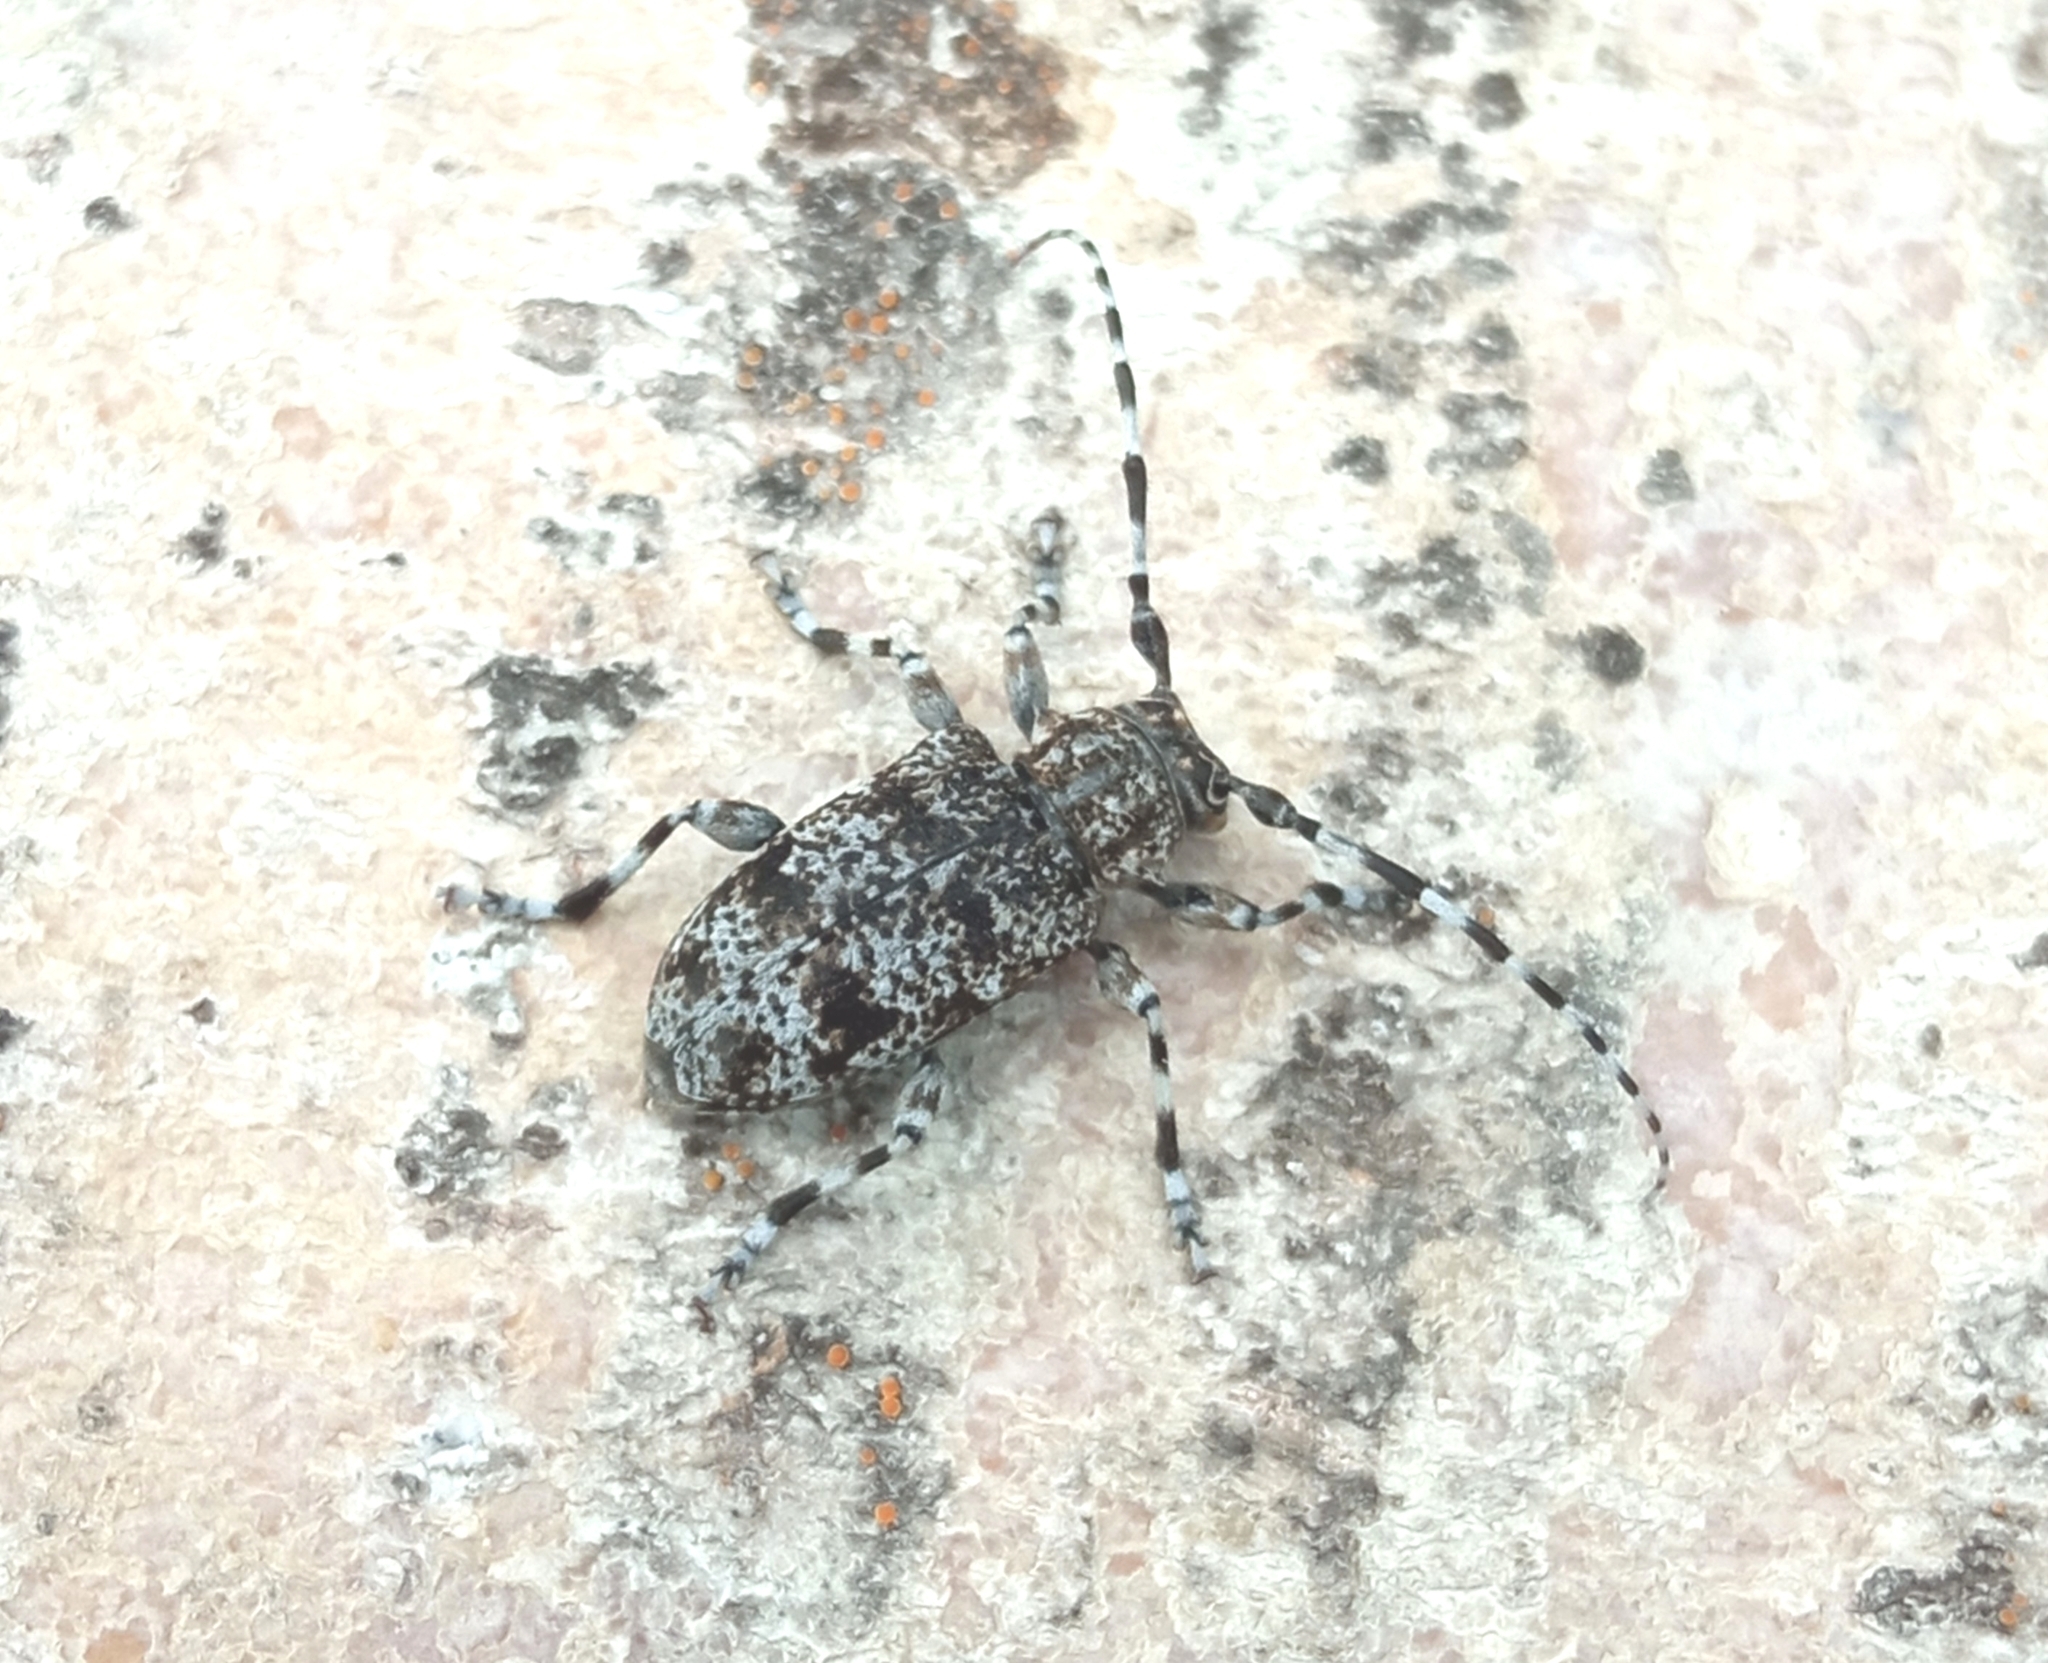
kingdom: Animalia
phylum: Arthropoda
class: Insecta
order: Coleoptera
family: Cerambycidae
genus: Aegomorphus
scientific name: Aegomorphus clavipes
